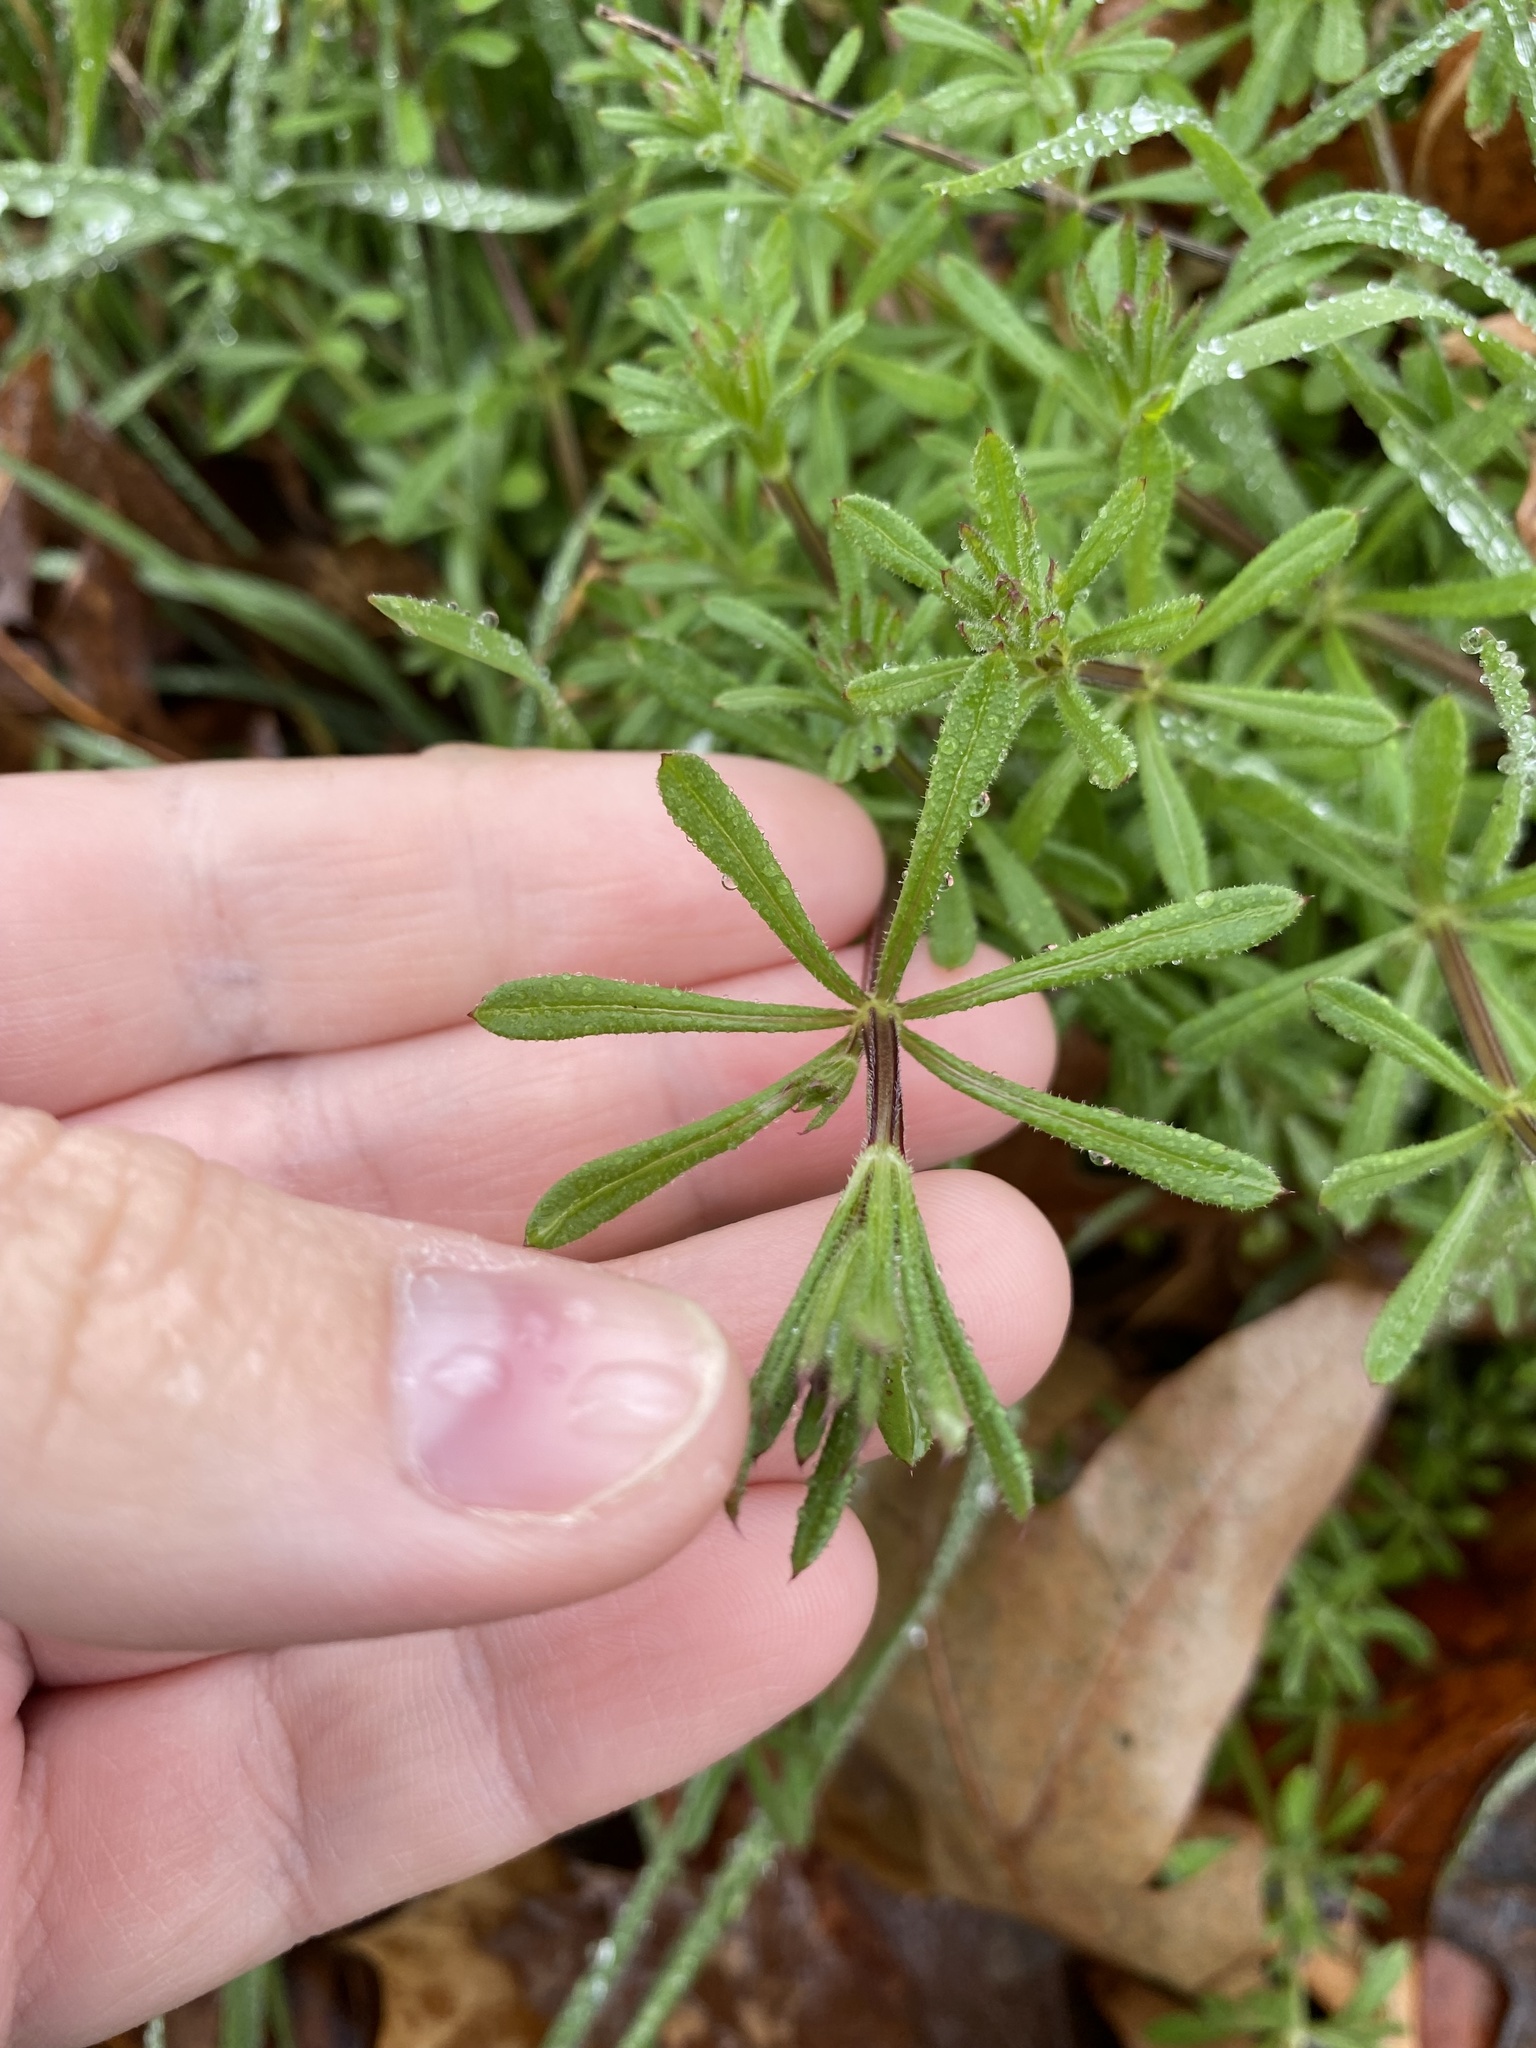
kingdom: Plantae
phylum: Tracheophyta
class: Magnoliopsida
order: Gentianales
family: Rubiaceae
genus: Galium
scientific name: Galium aparine
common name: Cleavers
